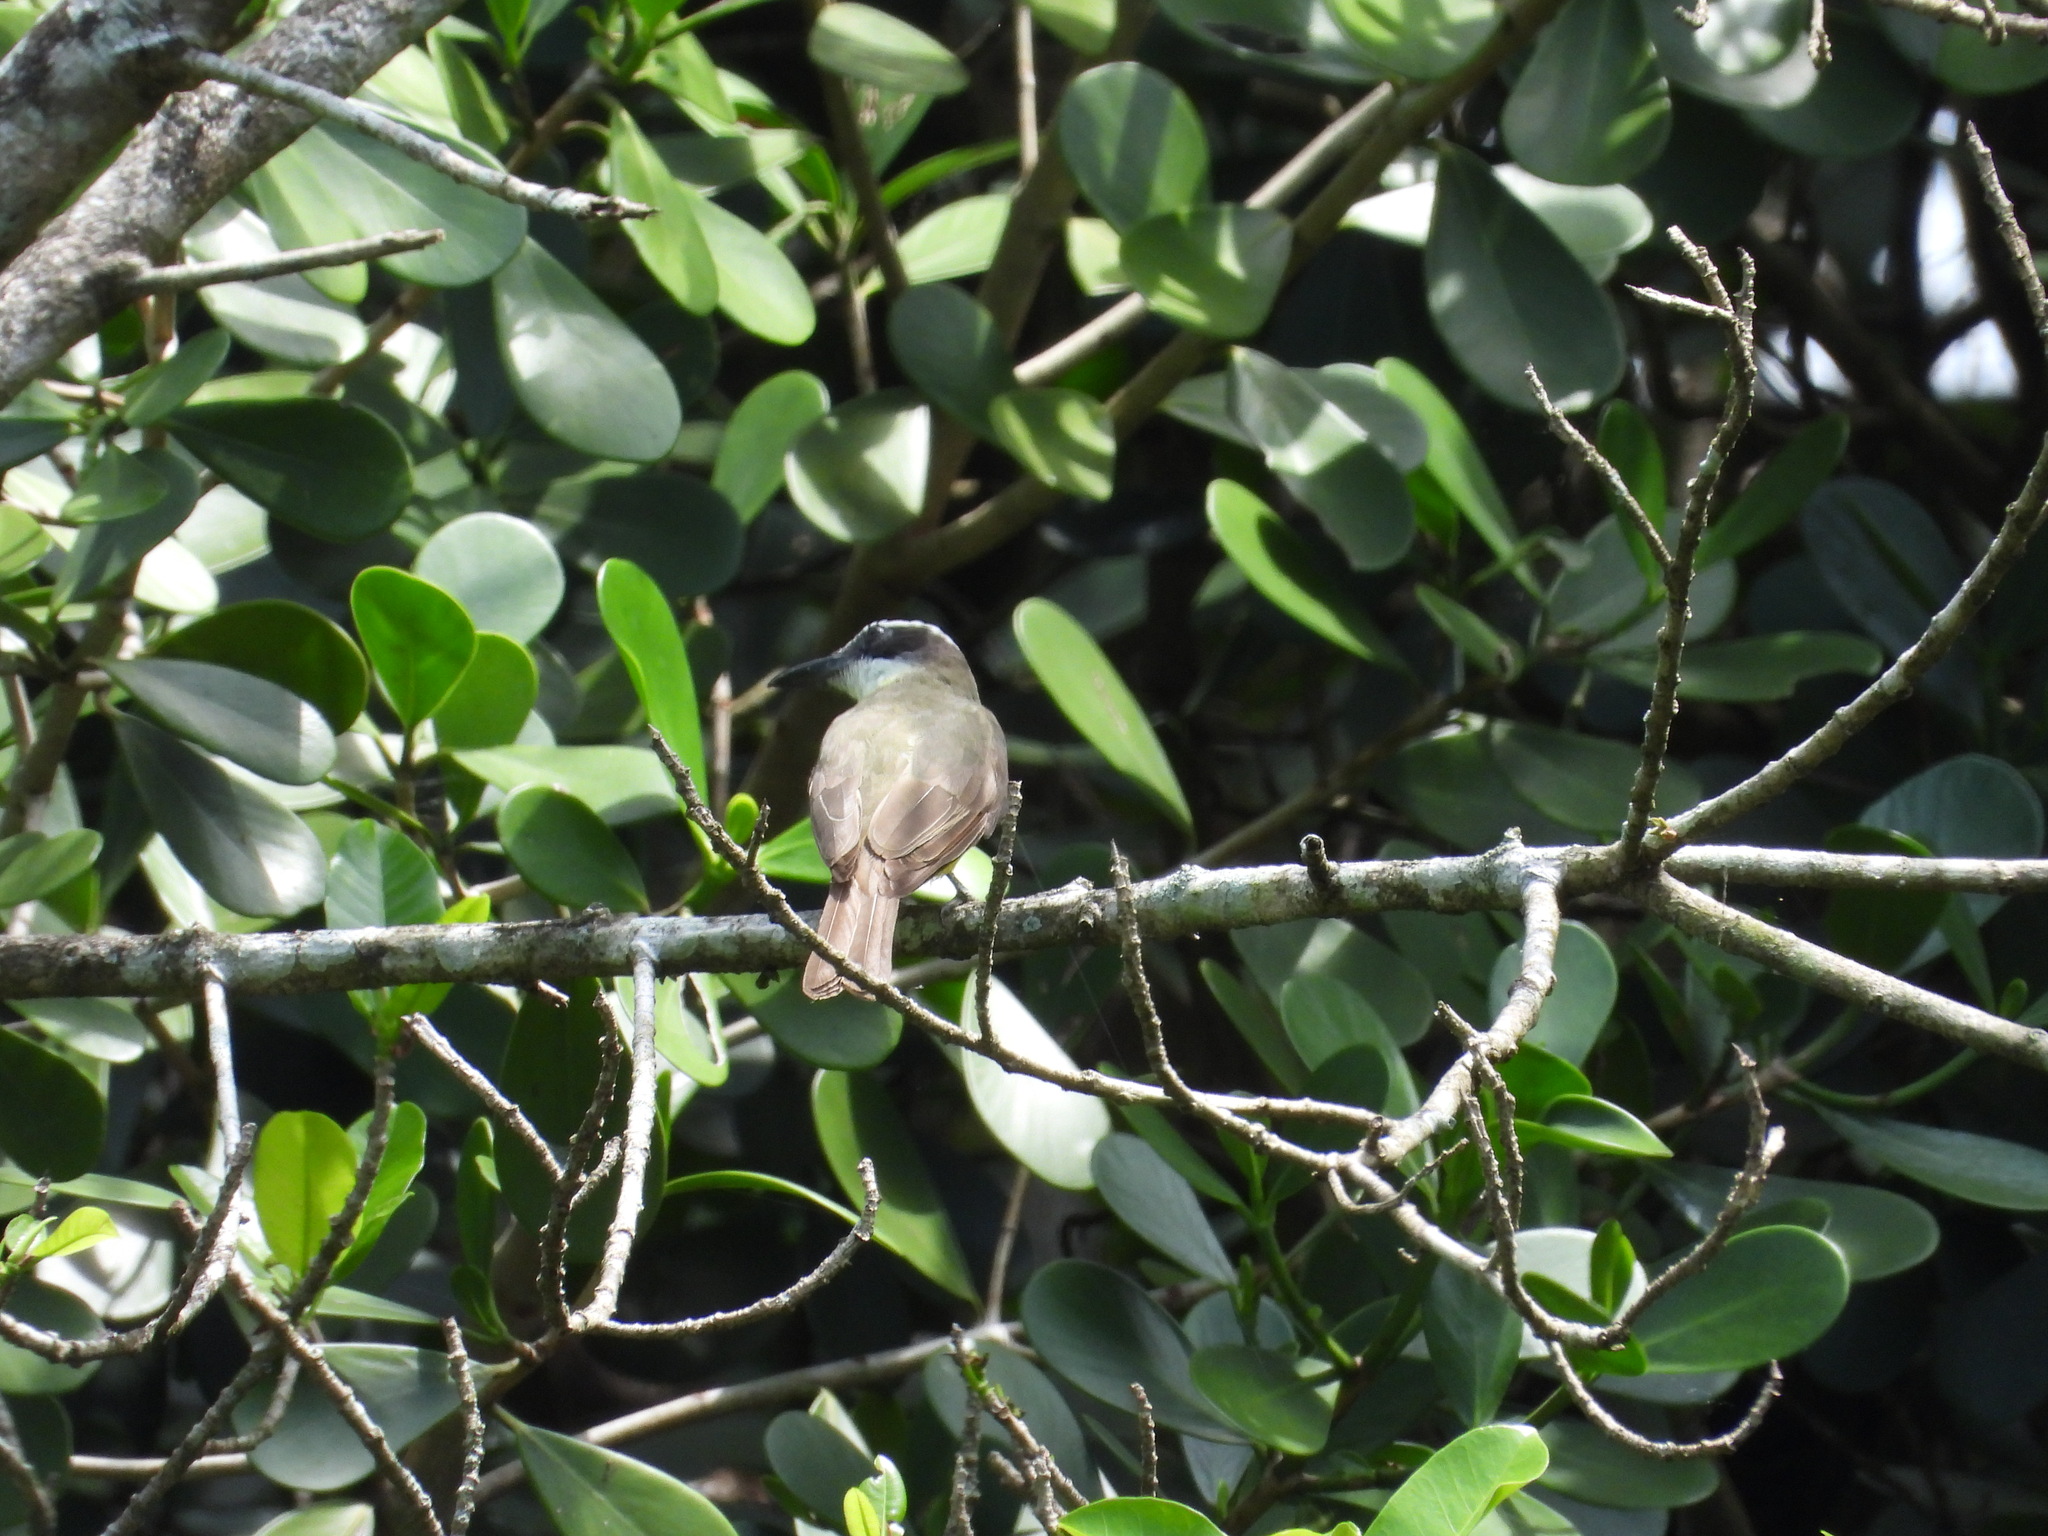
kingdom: Animalia
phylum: Chordata
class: Aves
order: Passeriformes
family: Tyrannidae
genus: Megarynchus
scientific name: Megarynchus pitangua
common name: Boat-billed flycatcher
